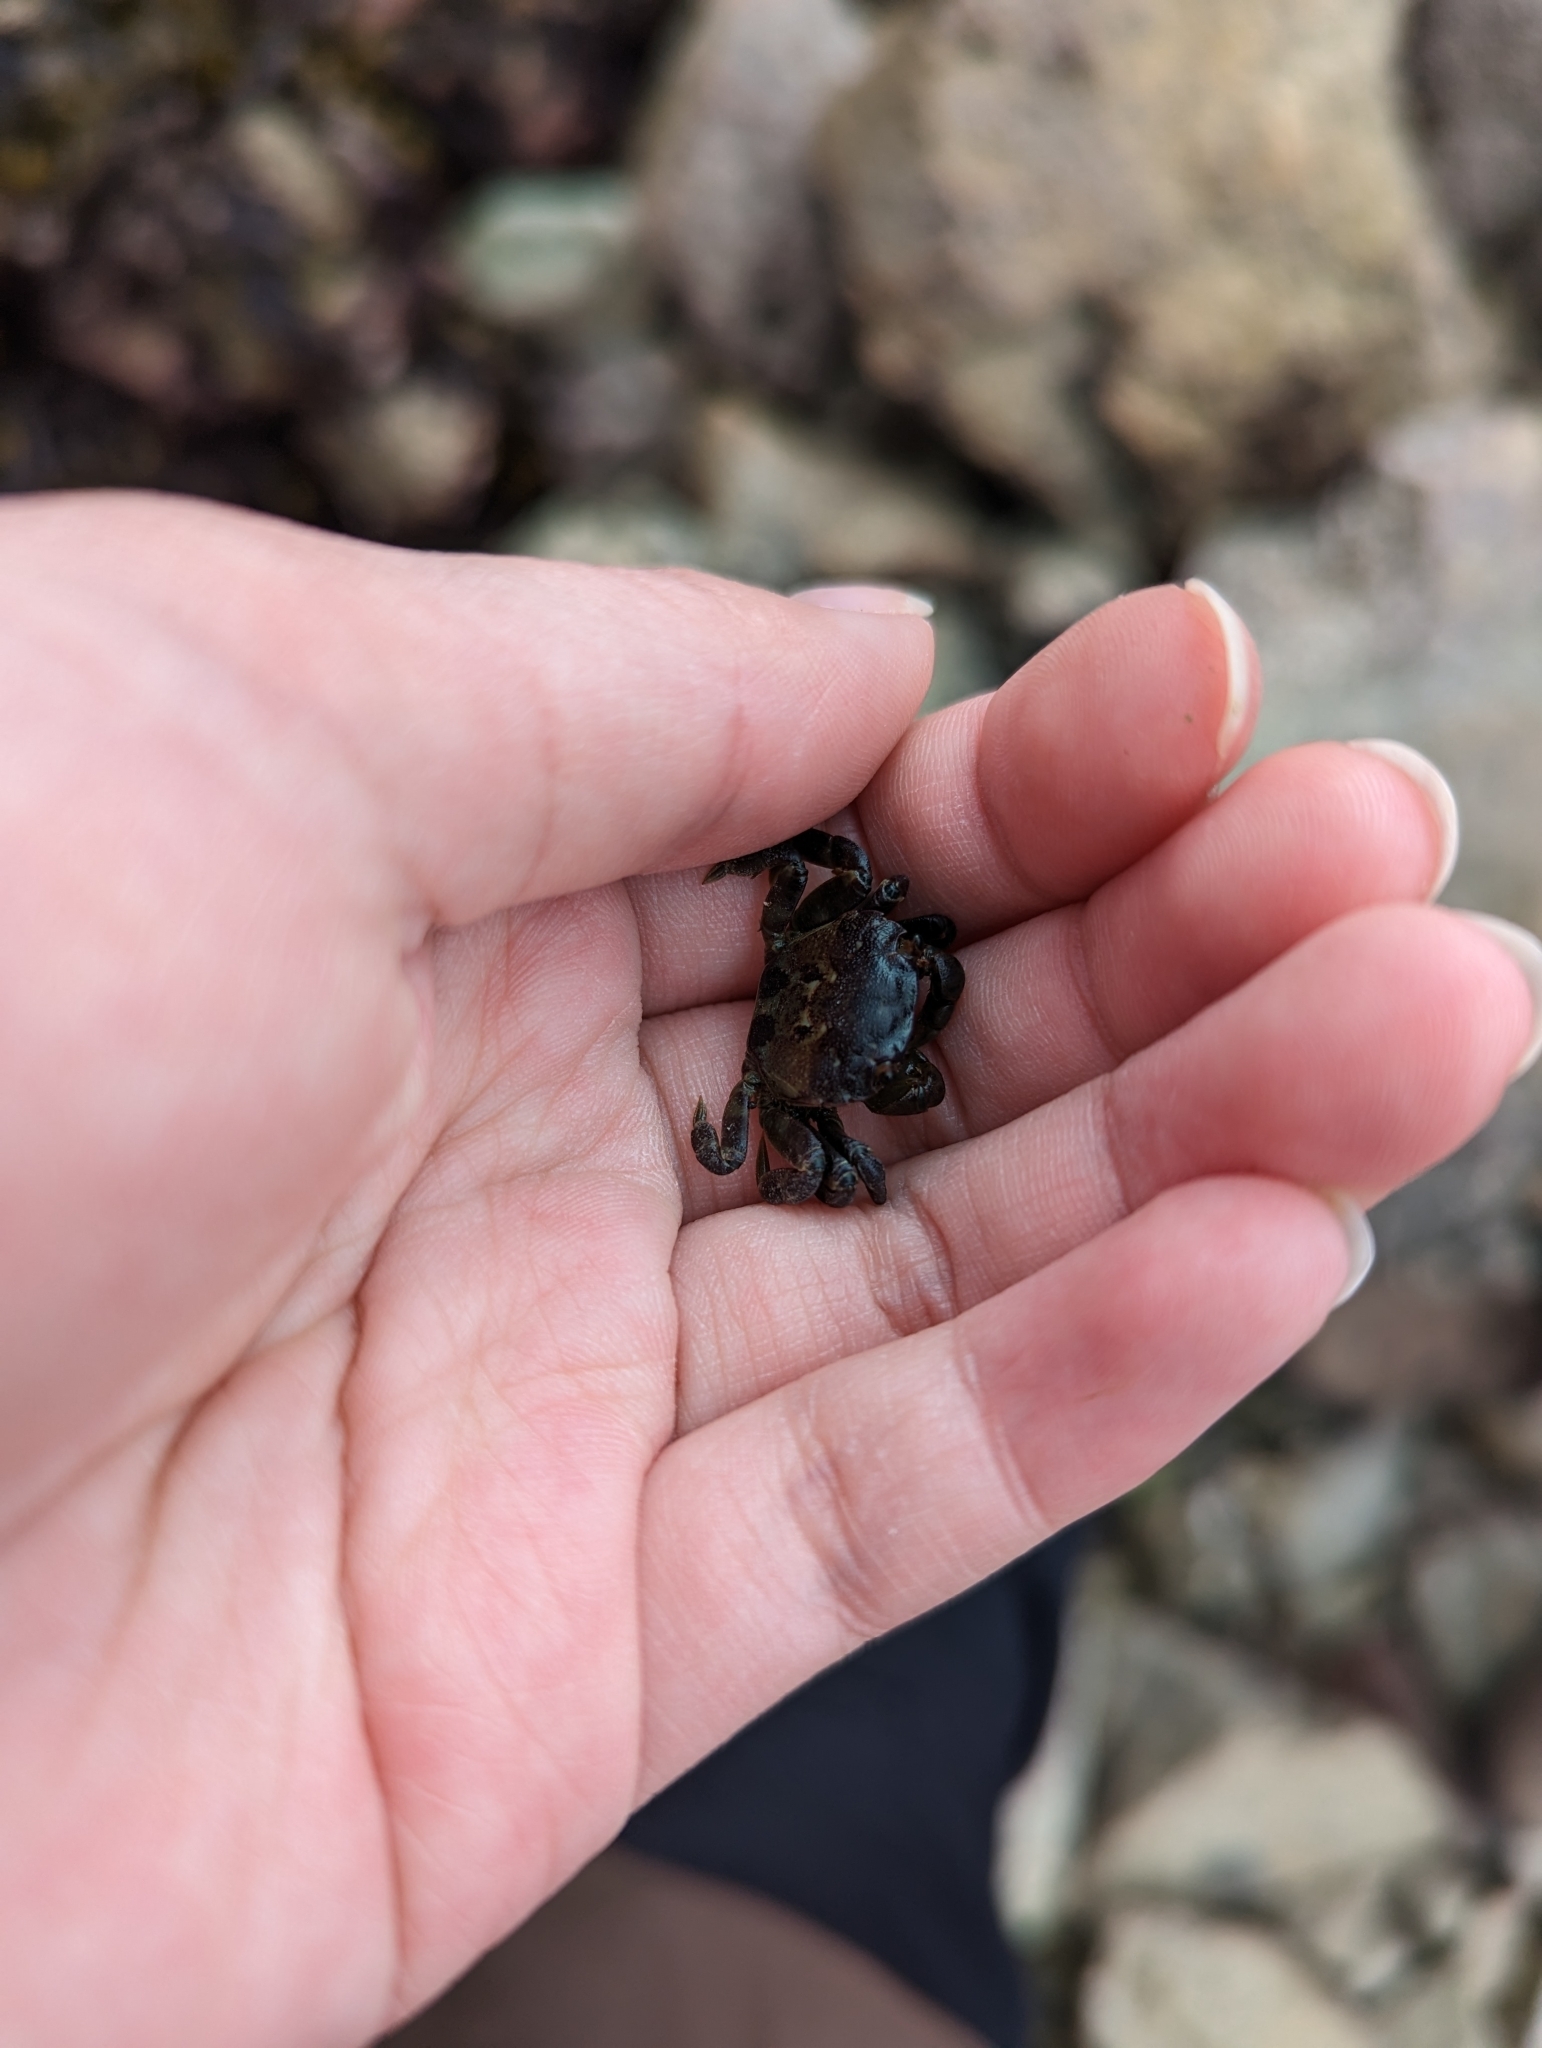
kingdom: Animalia
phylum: Arthropoda
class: Malacostraca
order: Decapoda
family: Varunidae
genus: Hemigrapsus
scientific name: Hemigrapsus nudus
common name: Purple shore crab
